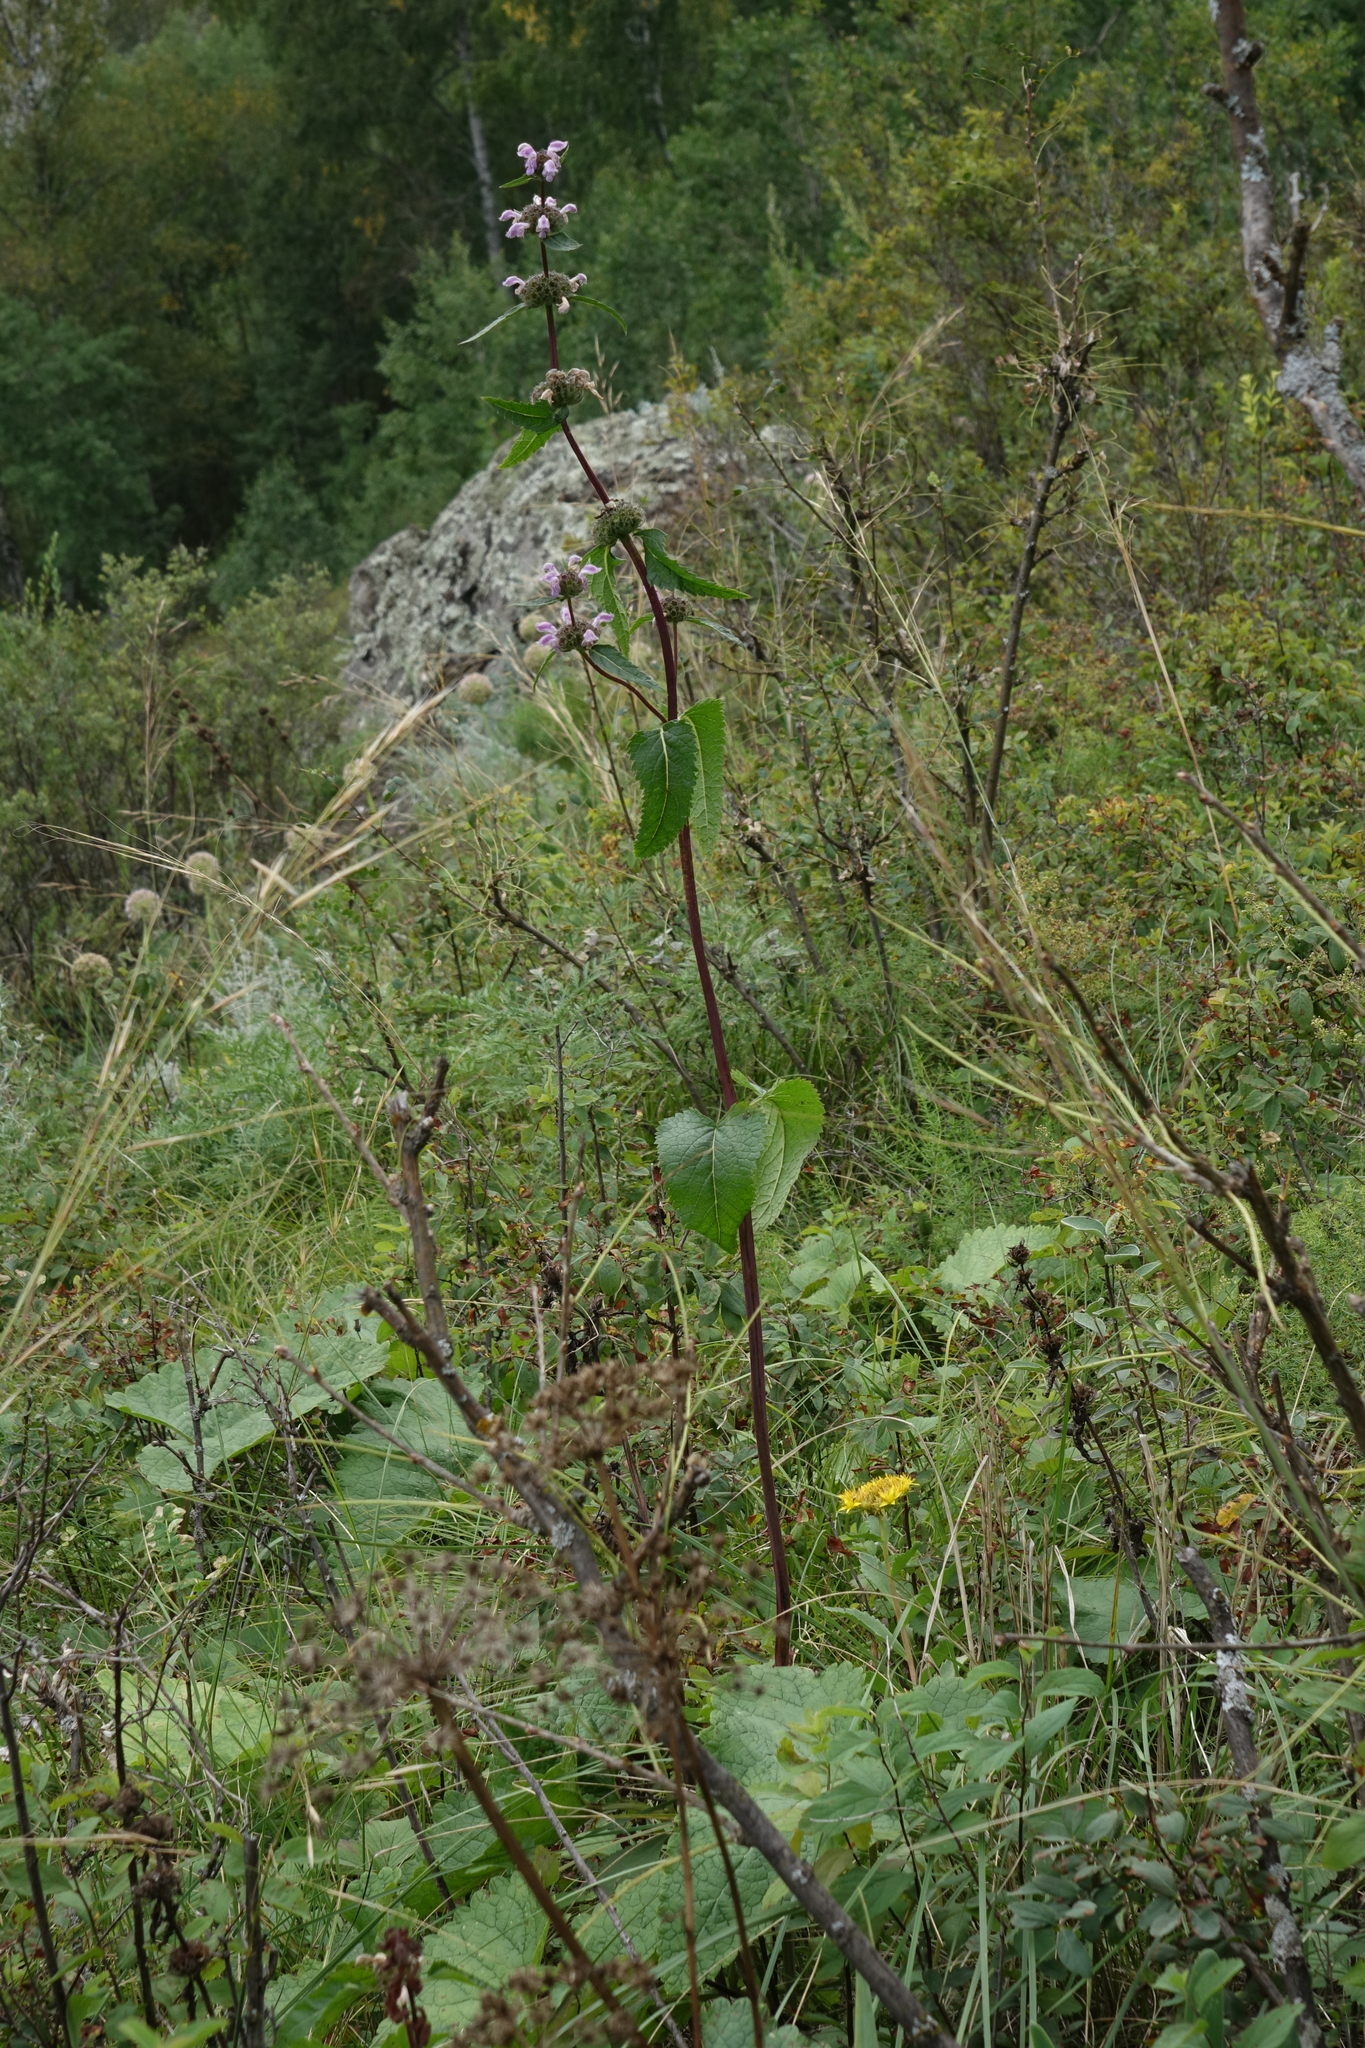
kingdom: Plantae
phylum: Tracheophyta
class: Magnoliopsida
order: Lamiales
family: Lamiaceae
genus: Phlomoides
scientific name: Phlomoides tuberosa
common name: Tuberous jerusalem sage
